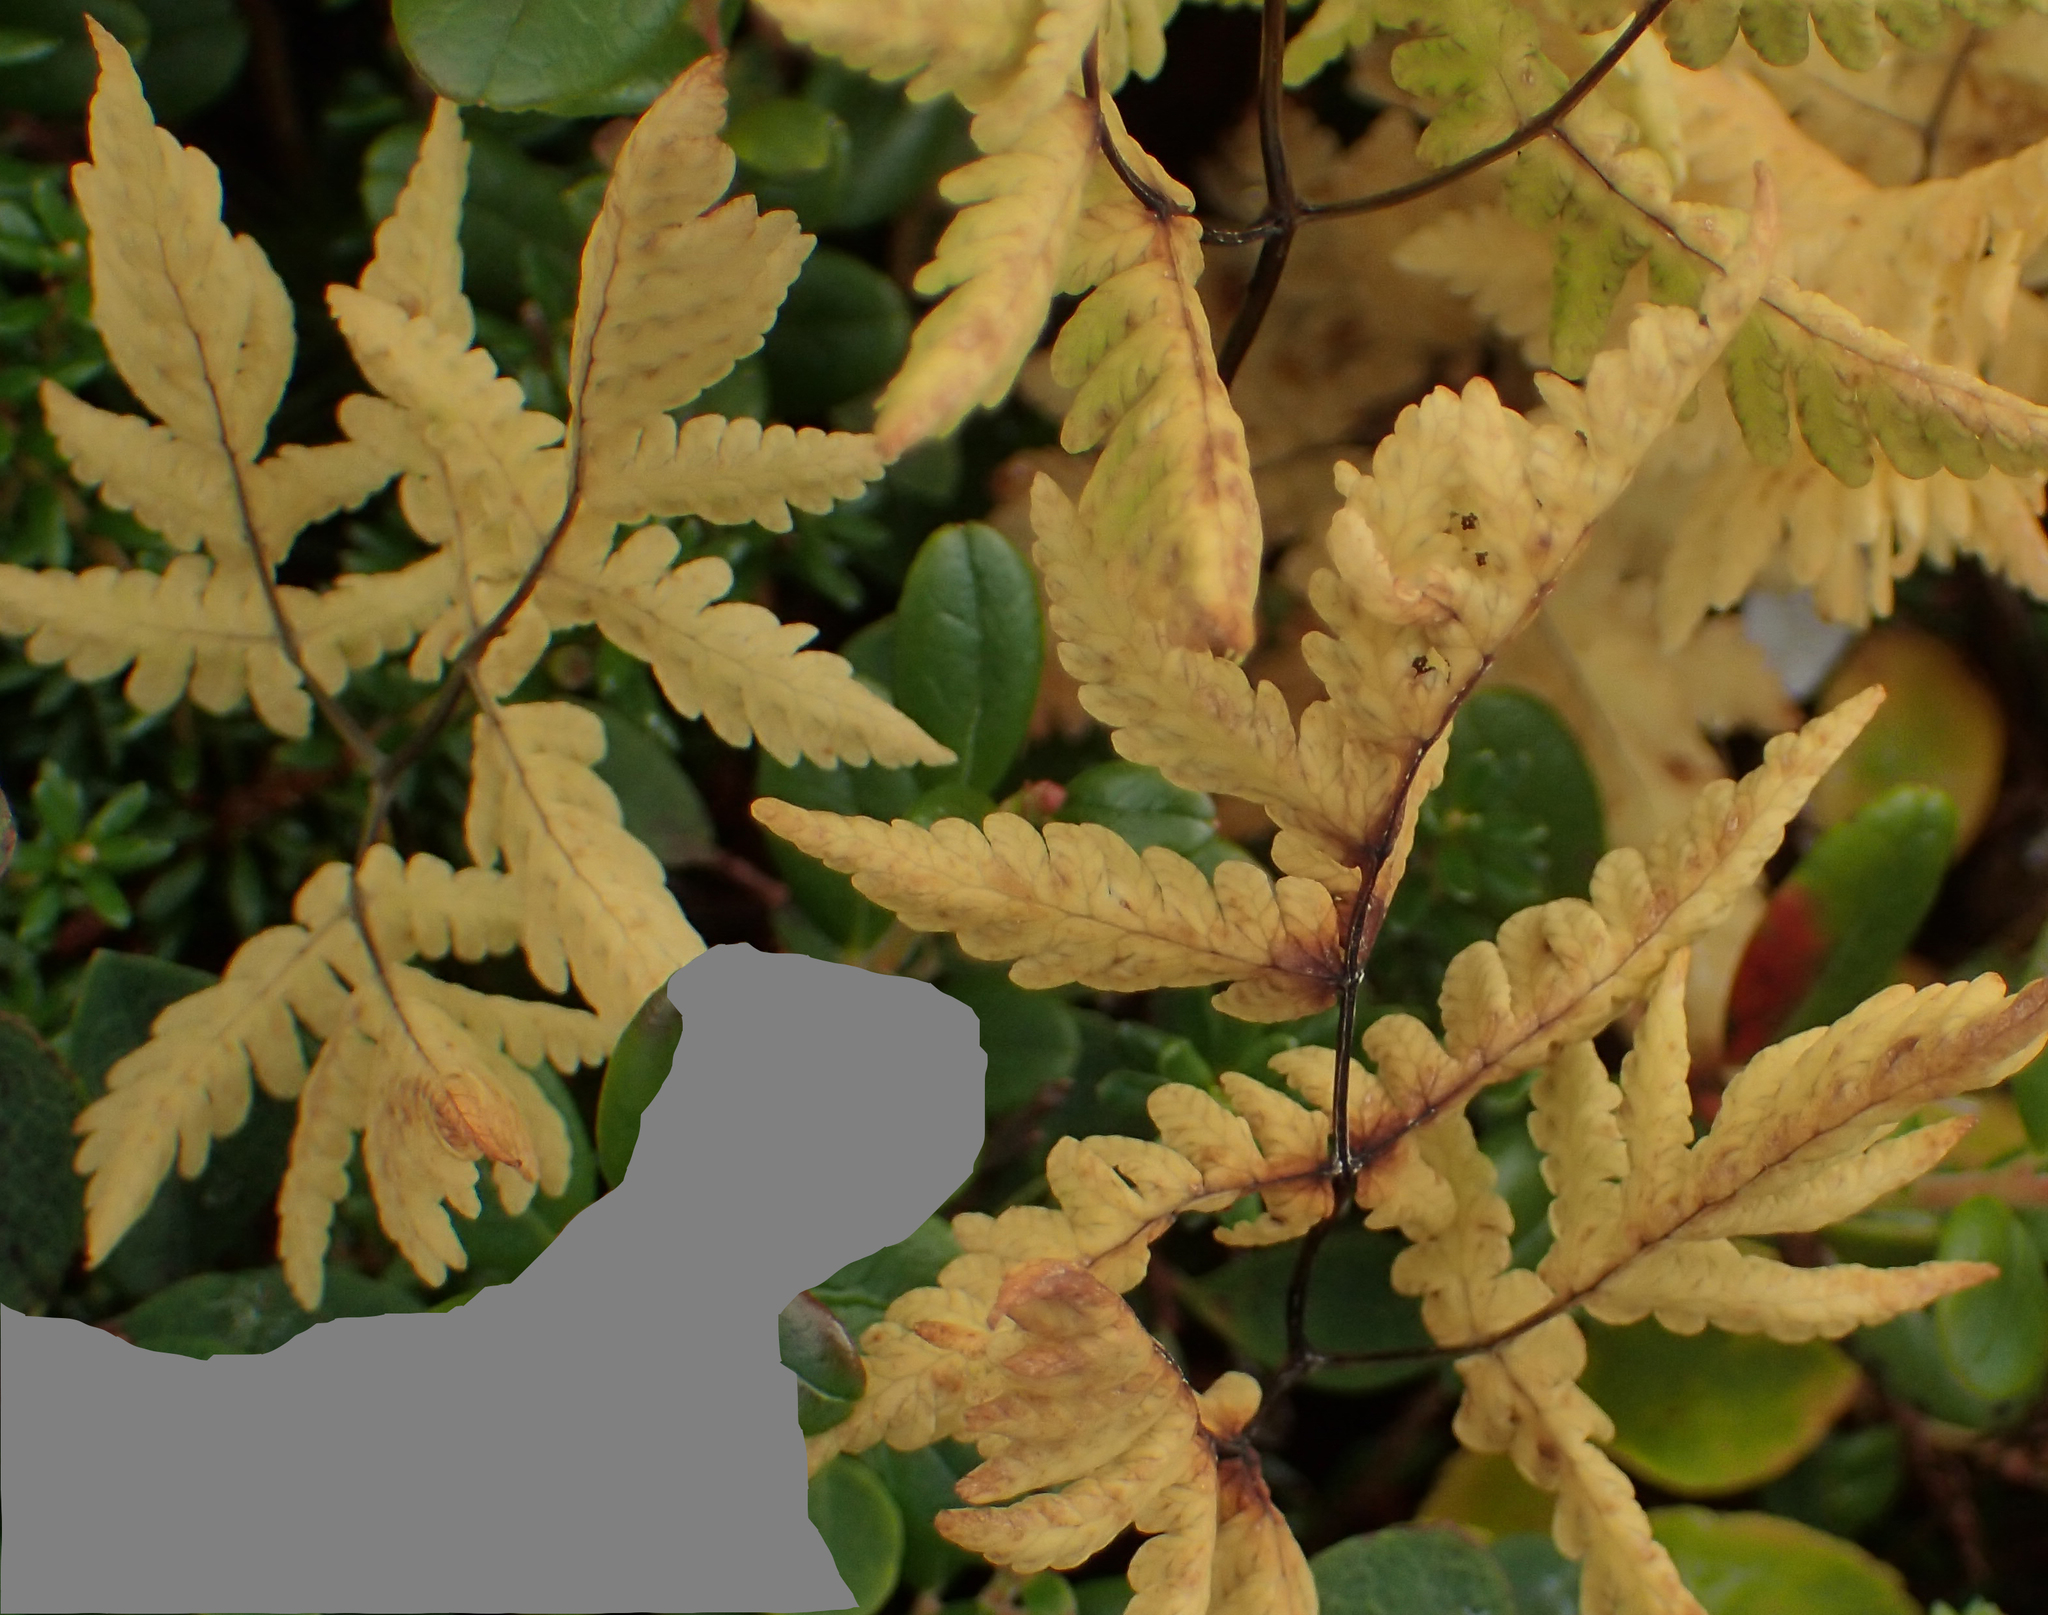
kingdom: Plantae
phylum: Tracheophyta
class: Polypodiopsida
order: Polypodiales
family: Cystopteridaceae
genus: Gymnocarpium
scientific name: Gymnocarpium dryopteris
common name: Oak fern
